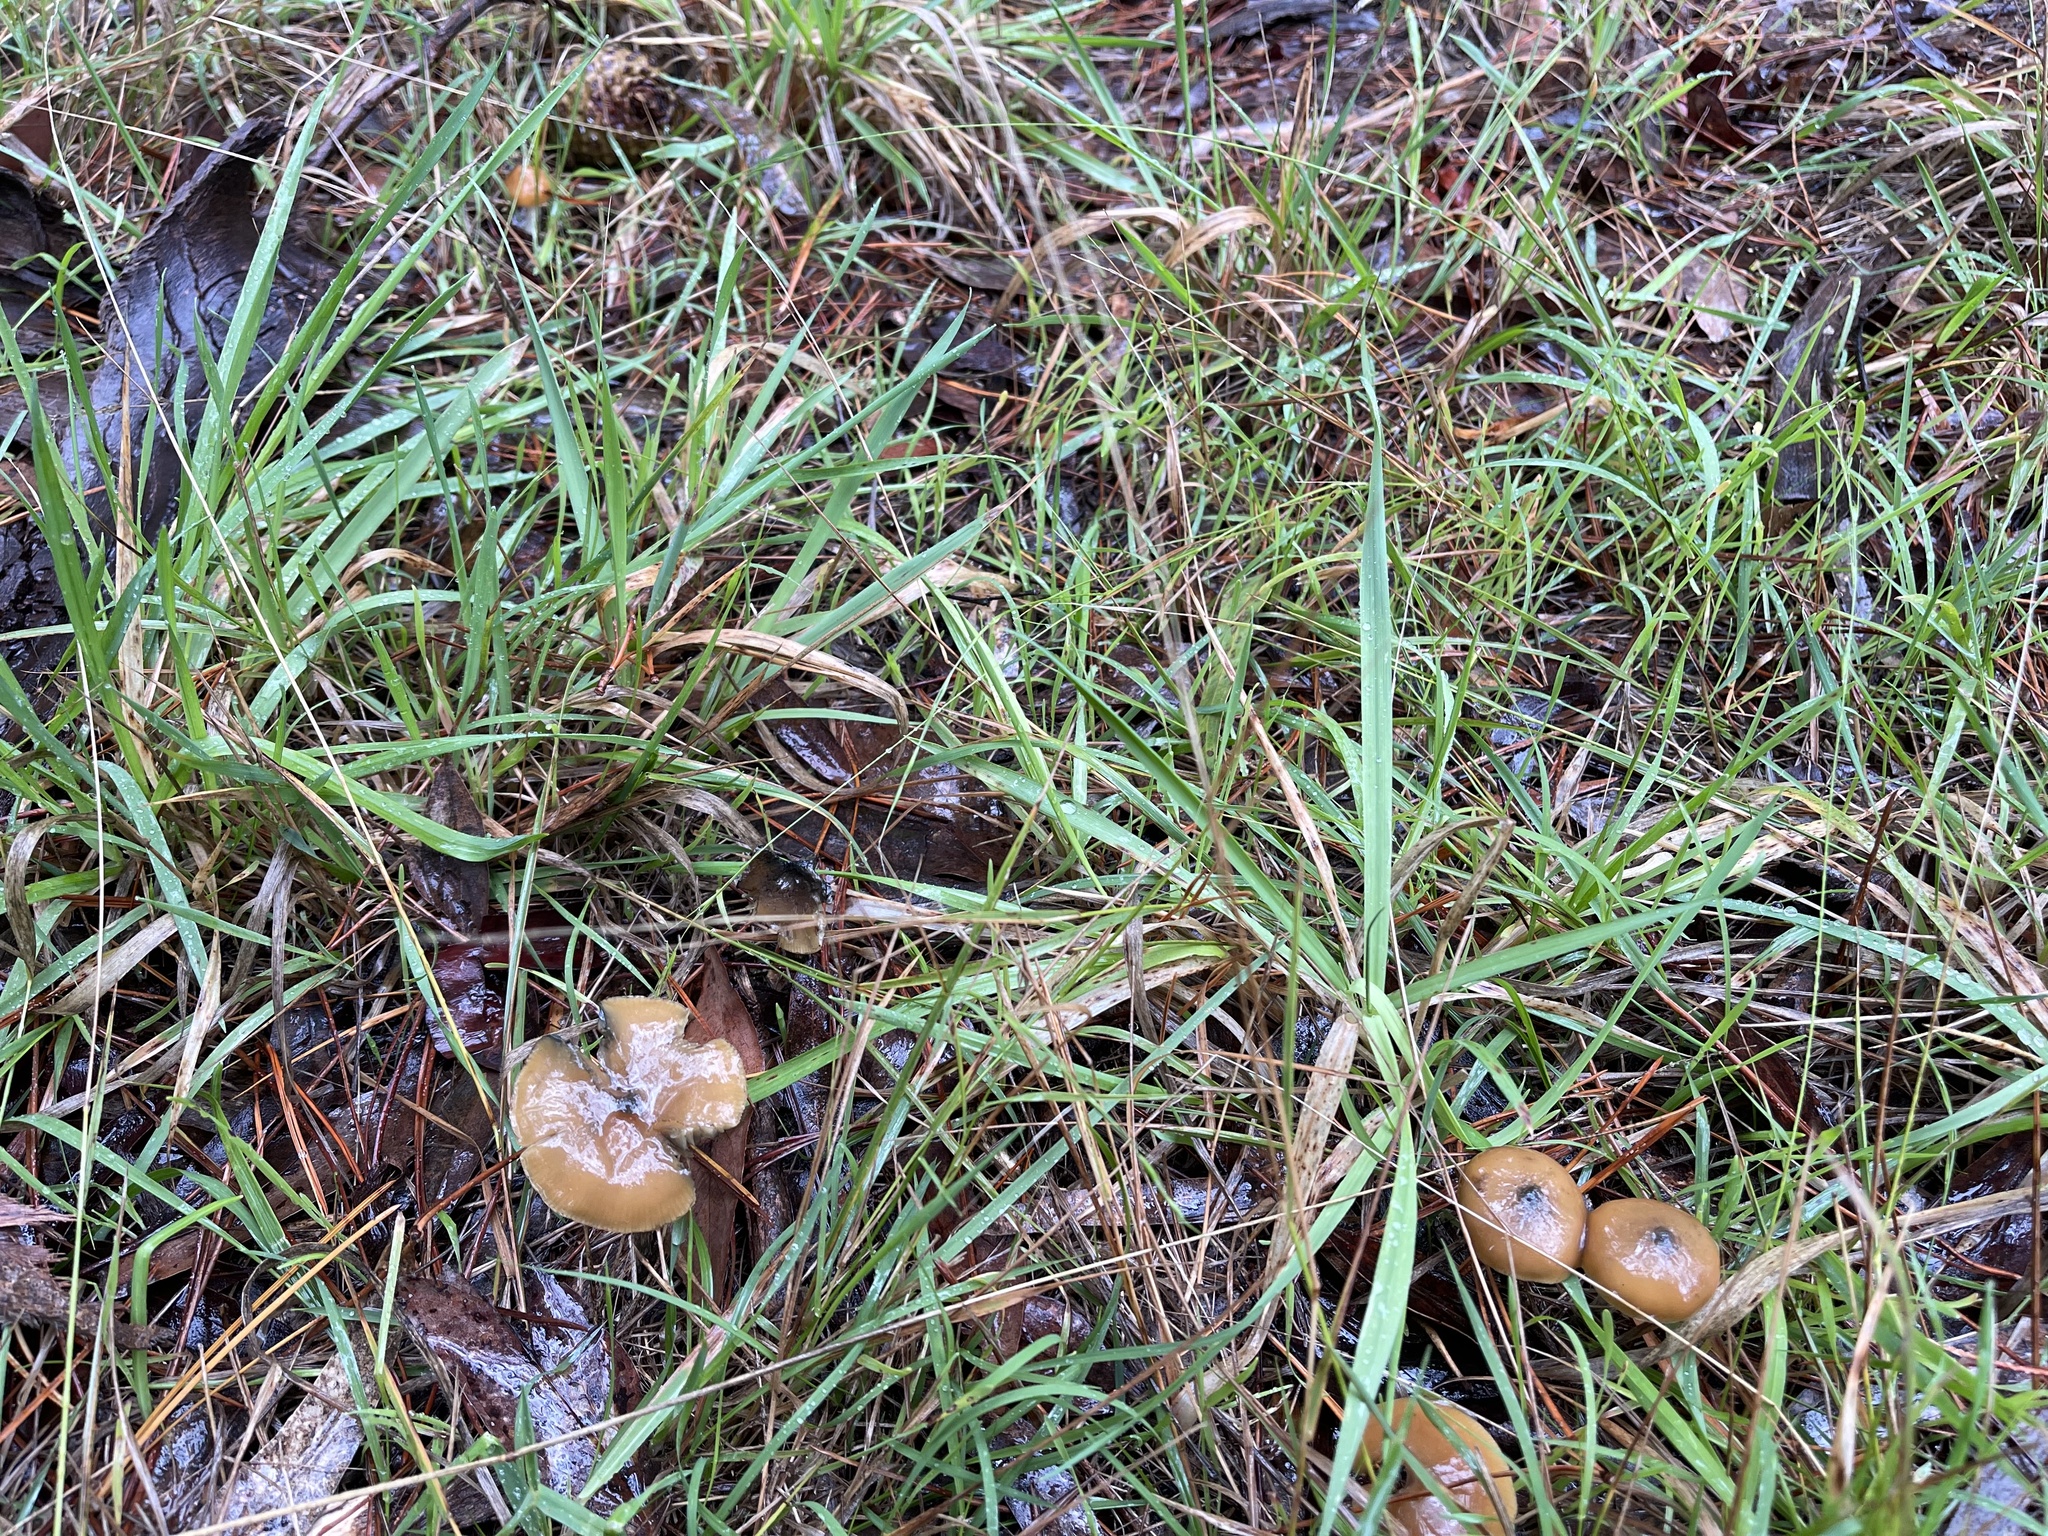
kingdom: Fungi
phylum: Basidiomycota
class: Agaricomycetes
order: Agaricales
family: Hymenogastraceae
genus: Psilocybe
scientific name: Psilocybe subaeruginosa
